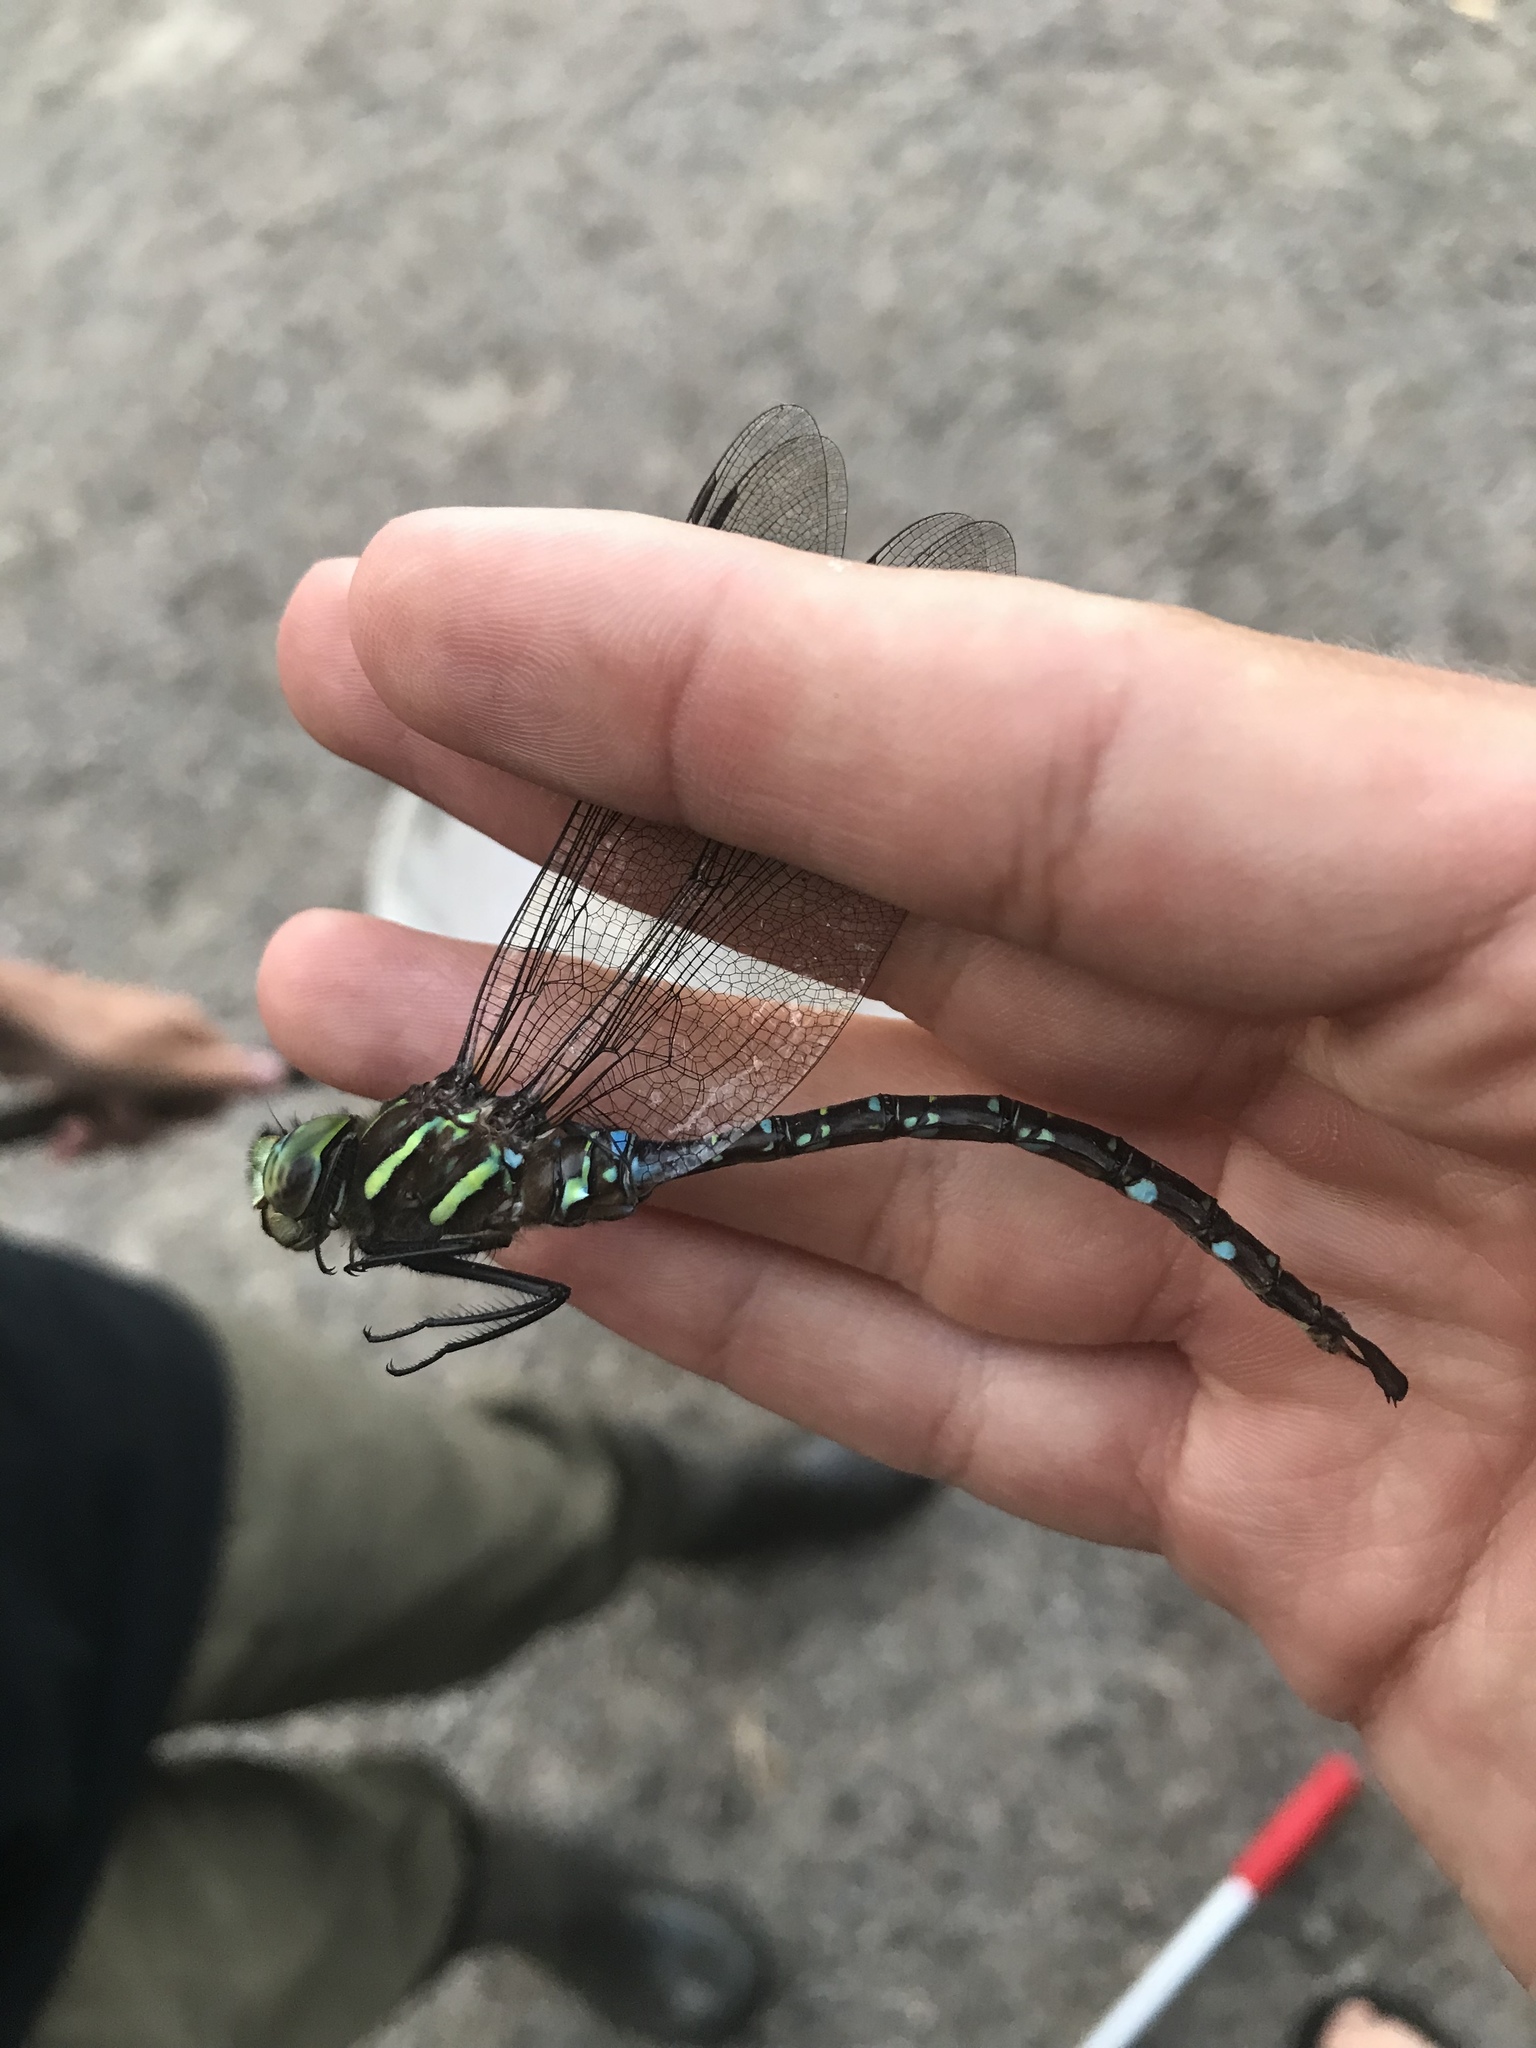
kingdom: Animalia
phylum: Arthropoda
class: Insecta
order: Odonata
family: Aeshnidae
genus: Aeshna
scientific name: Aeshna umbrosa
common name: Shadow darner
